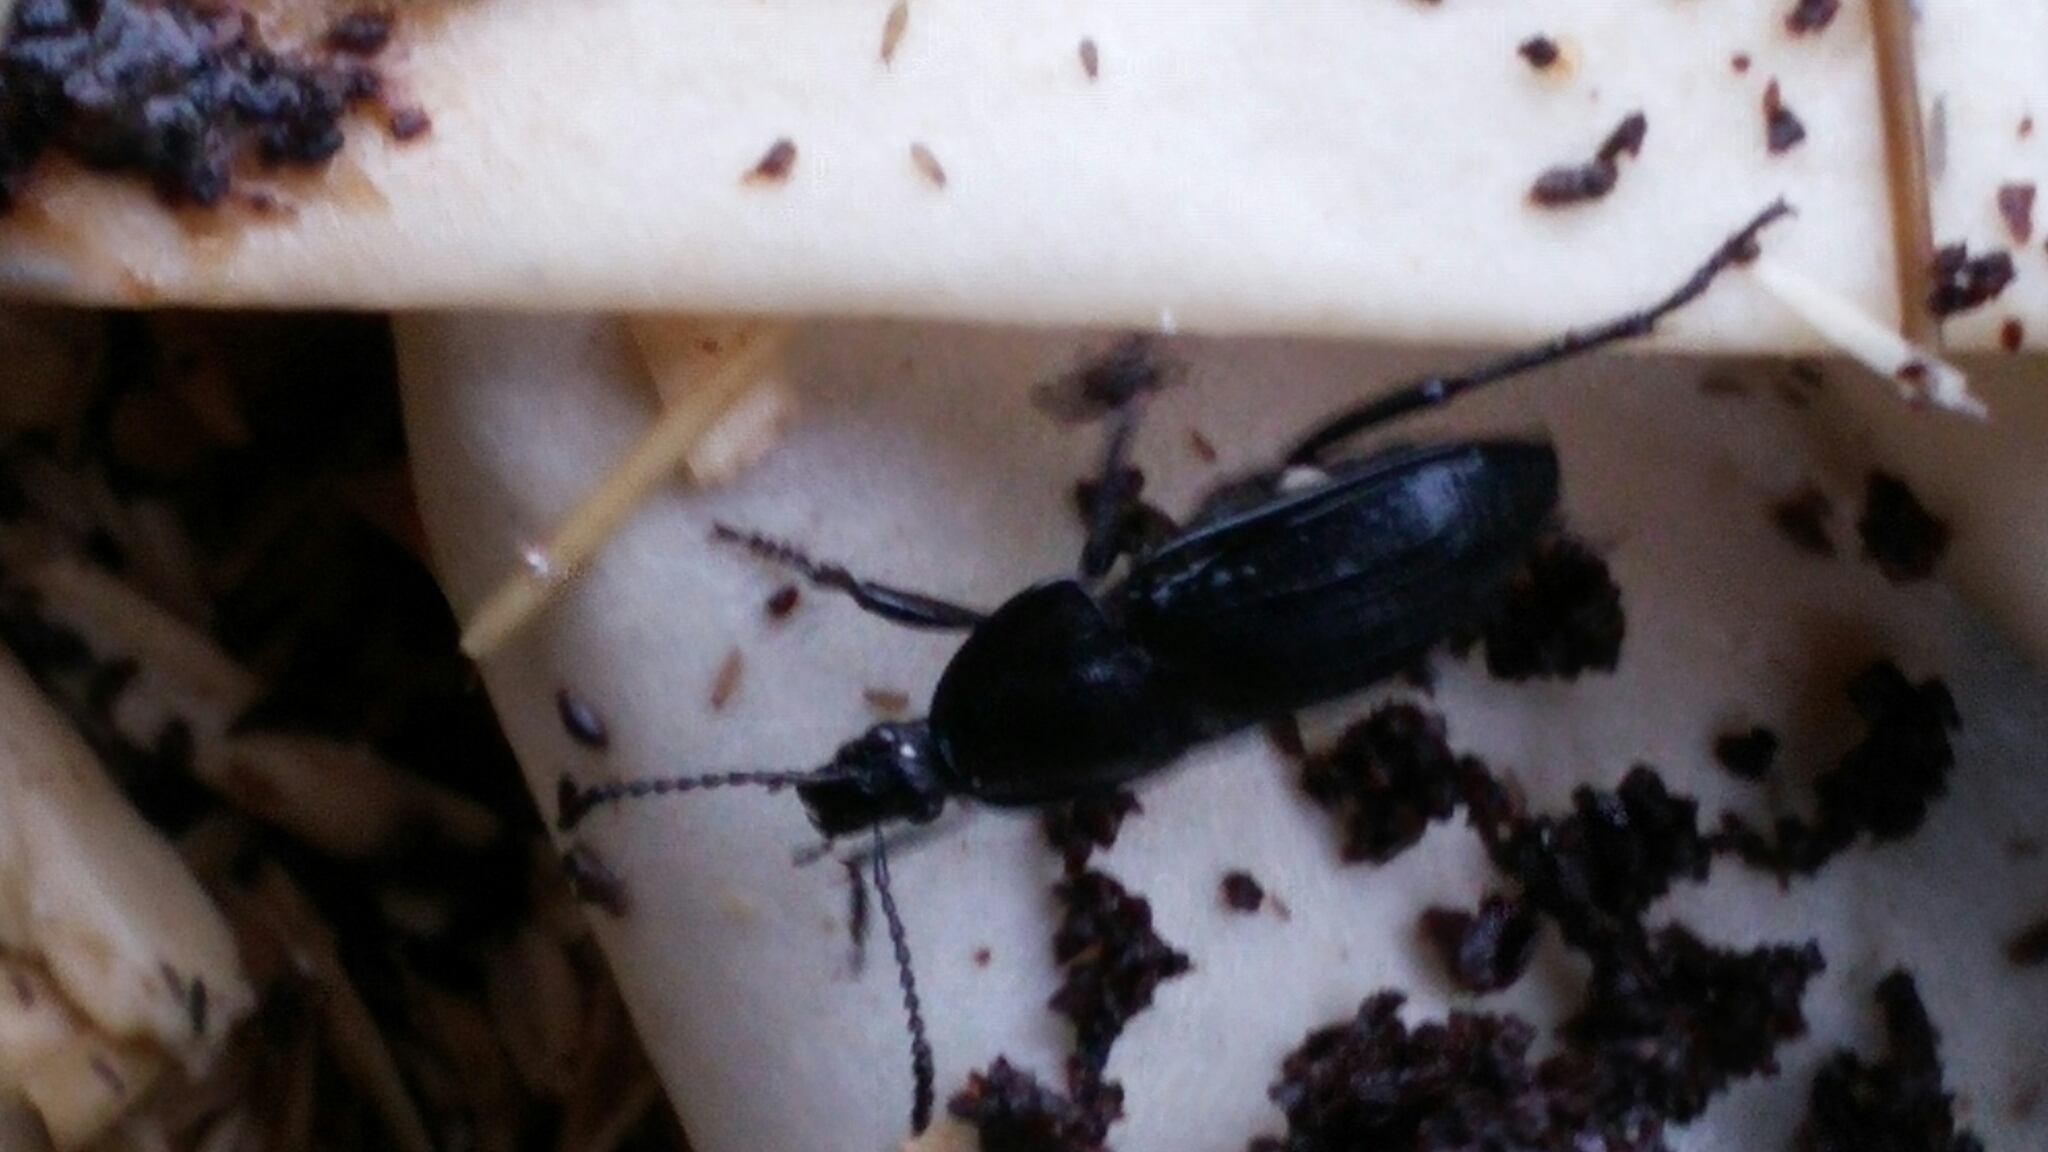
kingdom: Animalia
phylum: Arthropoda
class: Insecta
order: Coleoptera
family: Staphylinidae
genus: Silpha
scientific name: Silpha atrata
